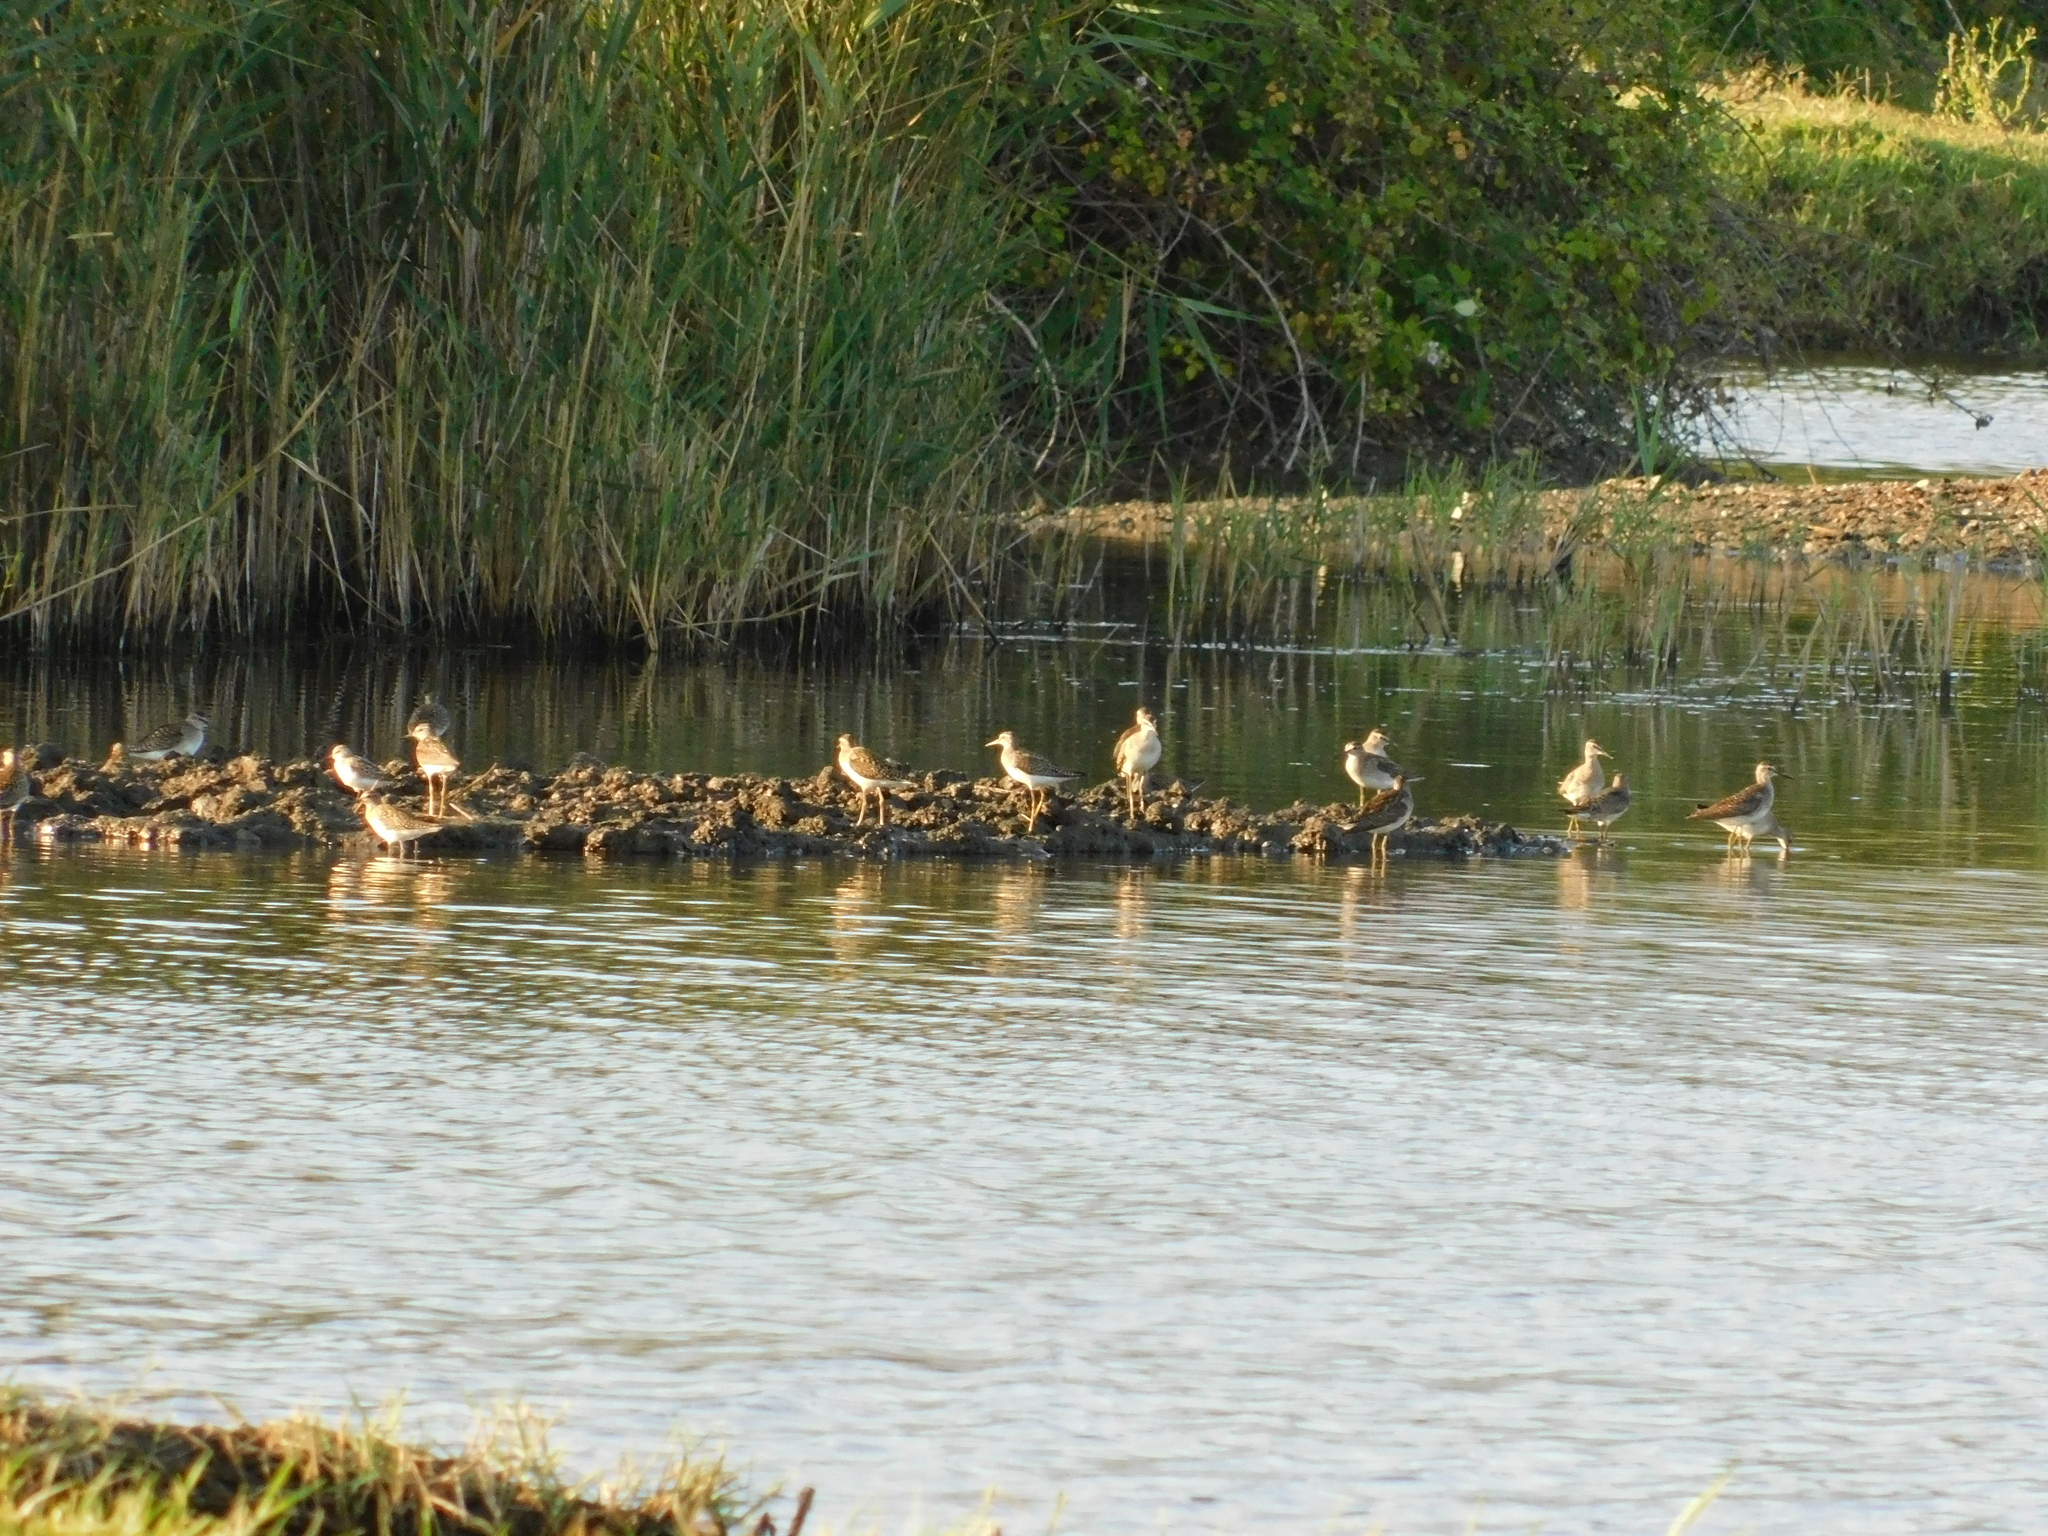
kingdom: Animalia
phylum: Chordata
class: Aves
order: Charadriiformes
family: Scolopacidae
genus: Tringa
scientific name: Tringa glareola
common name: Wood sandpiper
